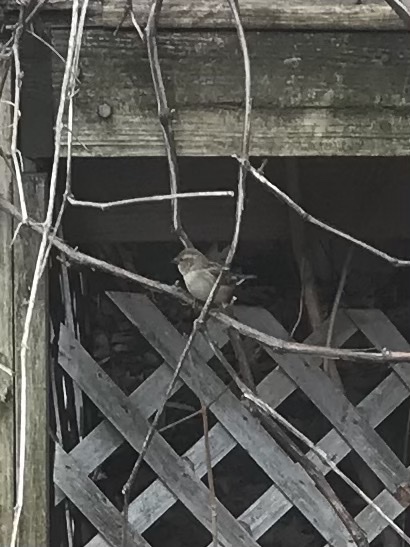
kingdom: Animalia
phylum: Chordata
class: Aves
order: Passeriformes
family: Passeridae
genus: Passer
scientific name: Passer domesticus
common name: House sparrow
